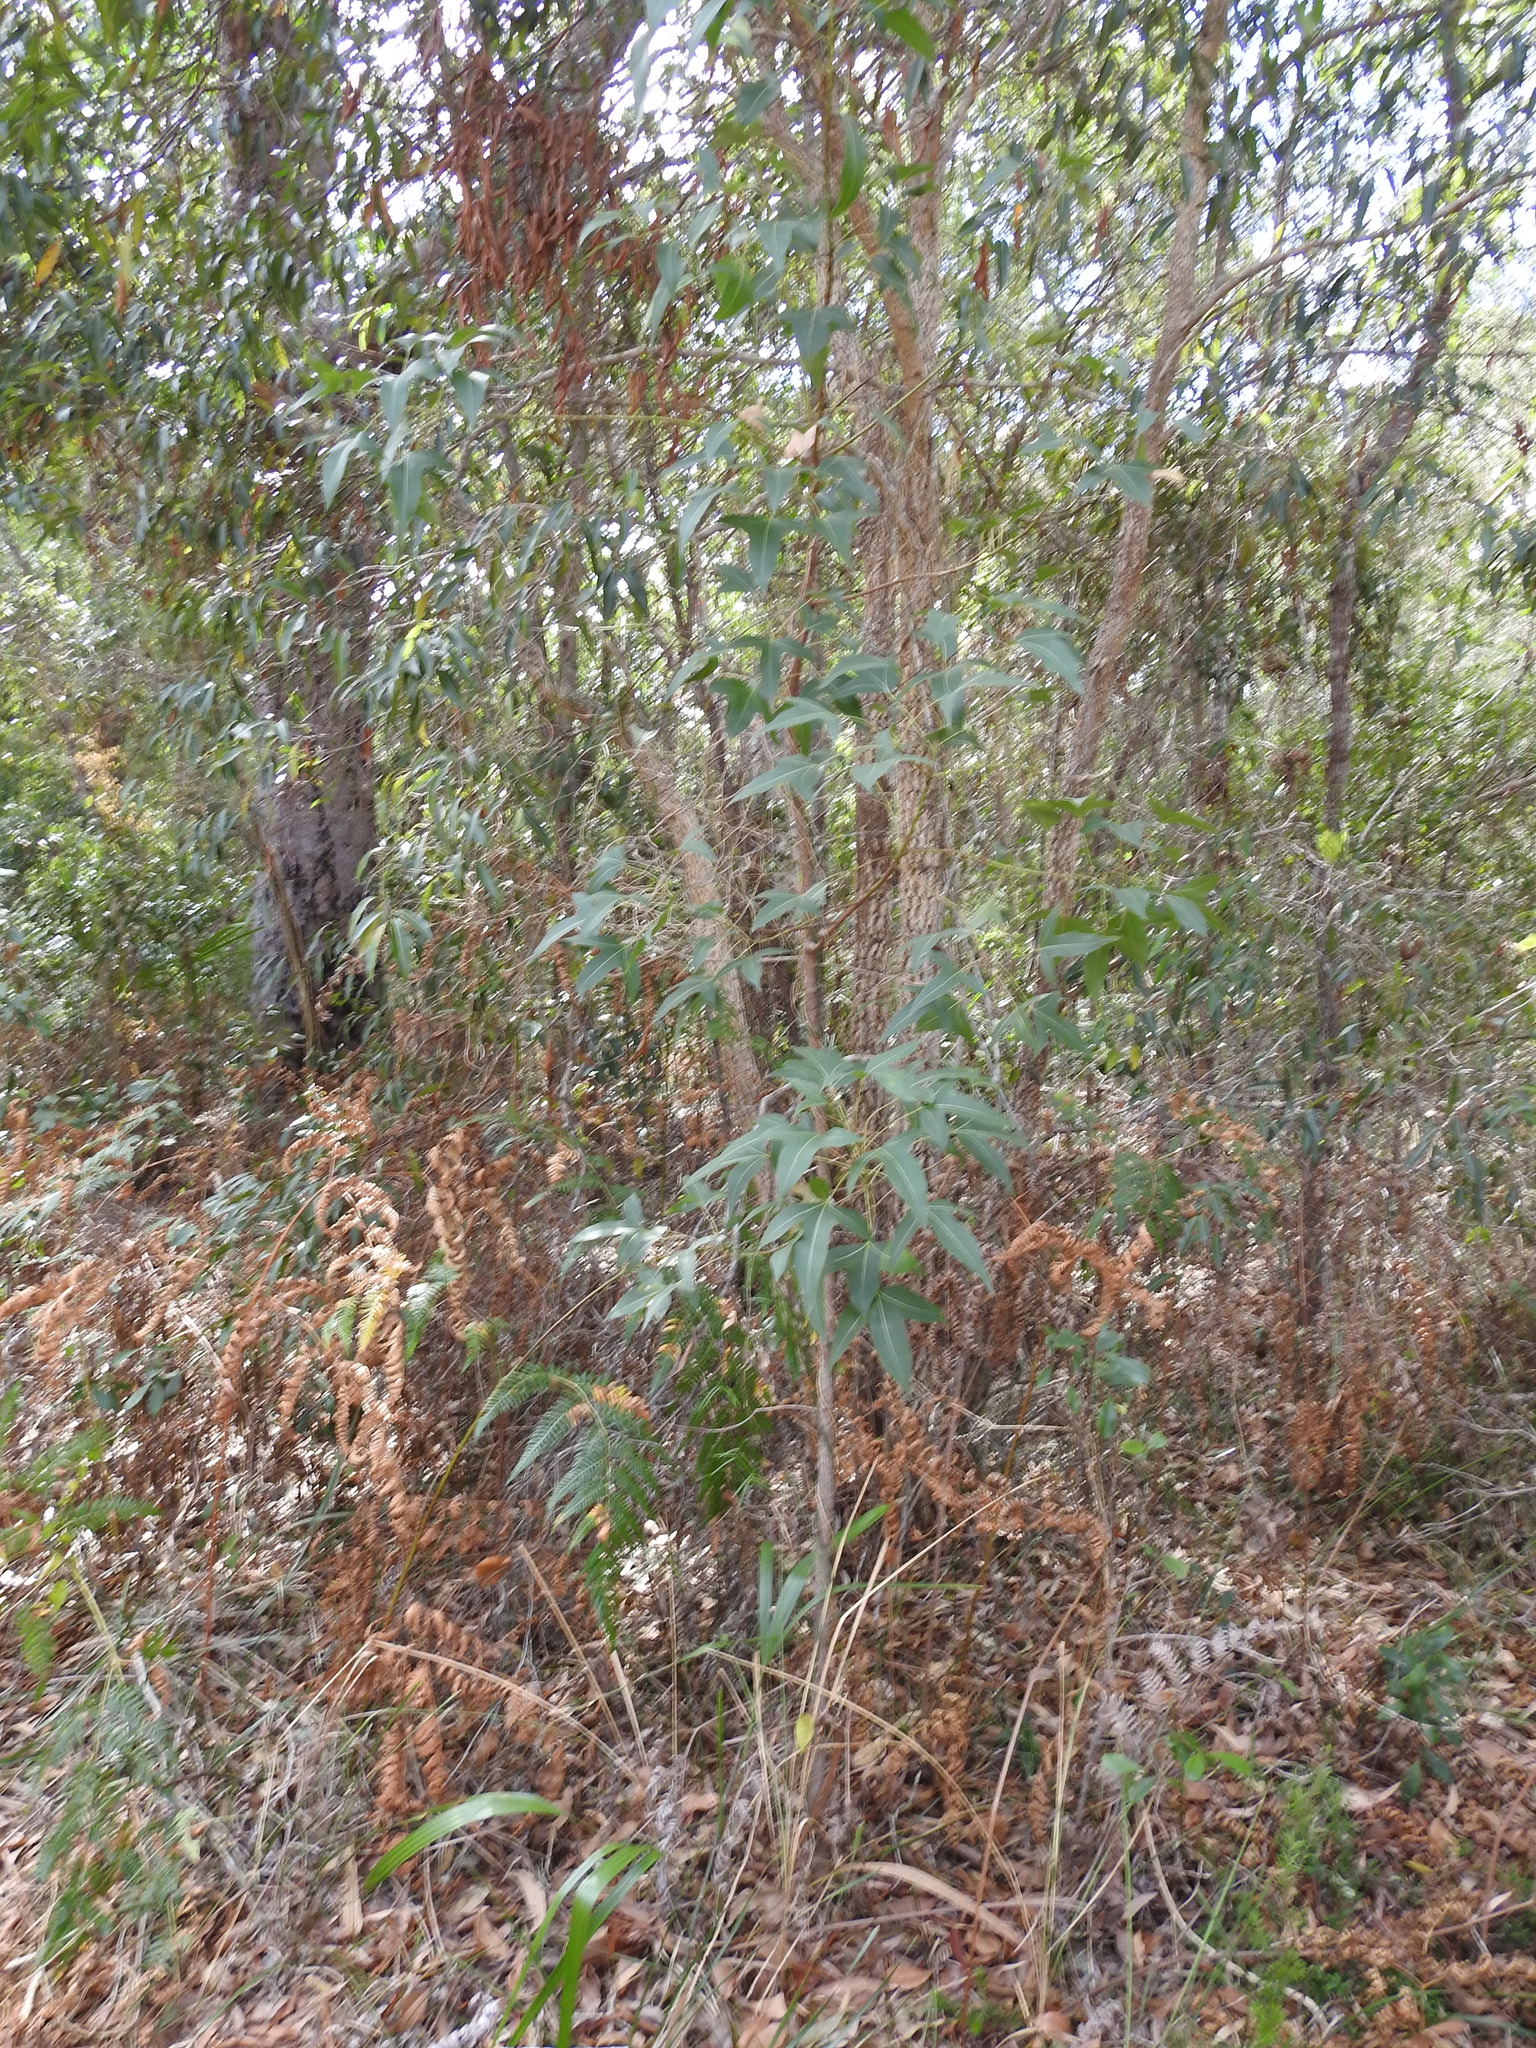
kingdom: Plantae
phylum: Tracheophyta
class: Magnoliopsida
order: Malvales
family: Malvaceae
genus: Brachychiton
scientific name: Brachychiton populneus
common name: Kurrajong
